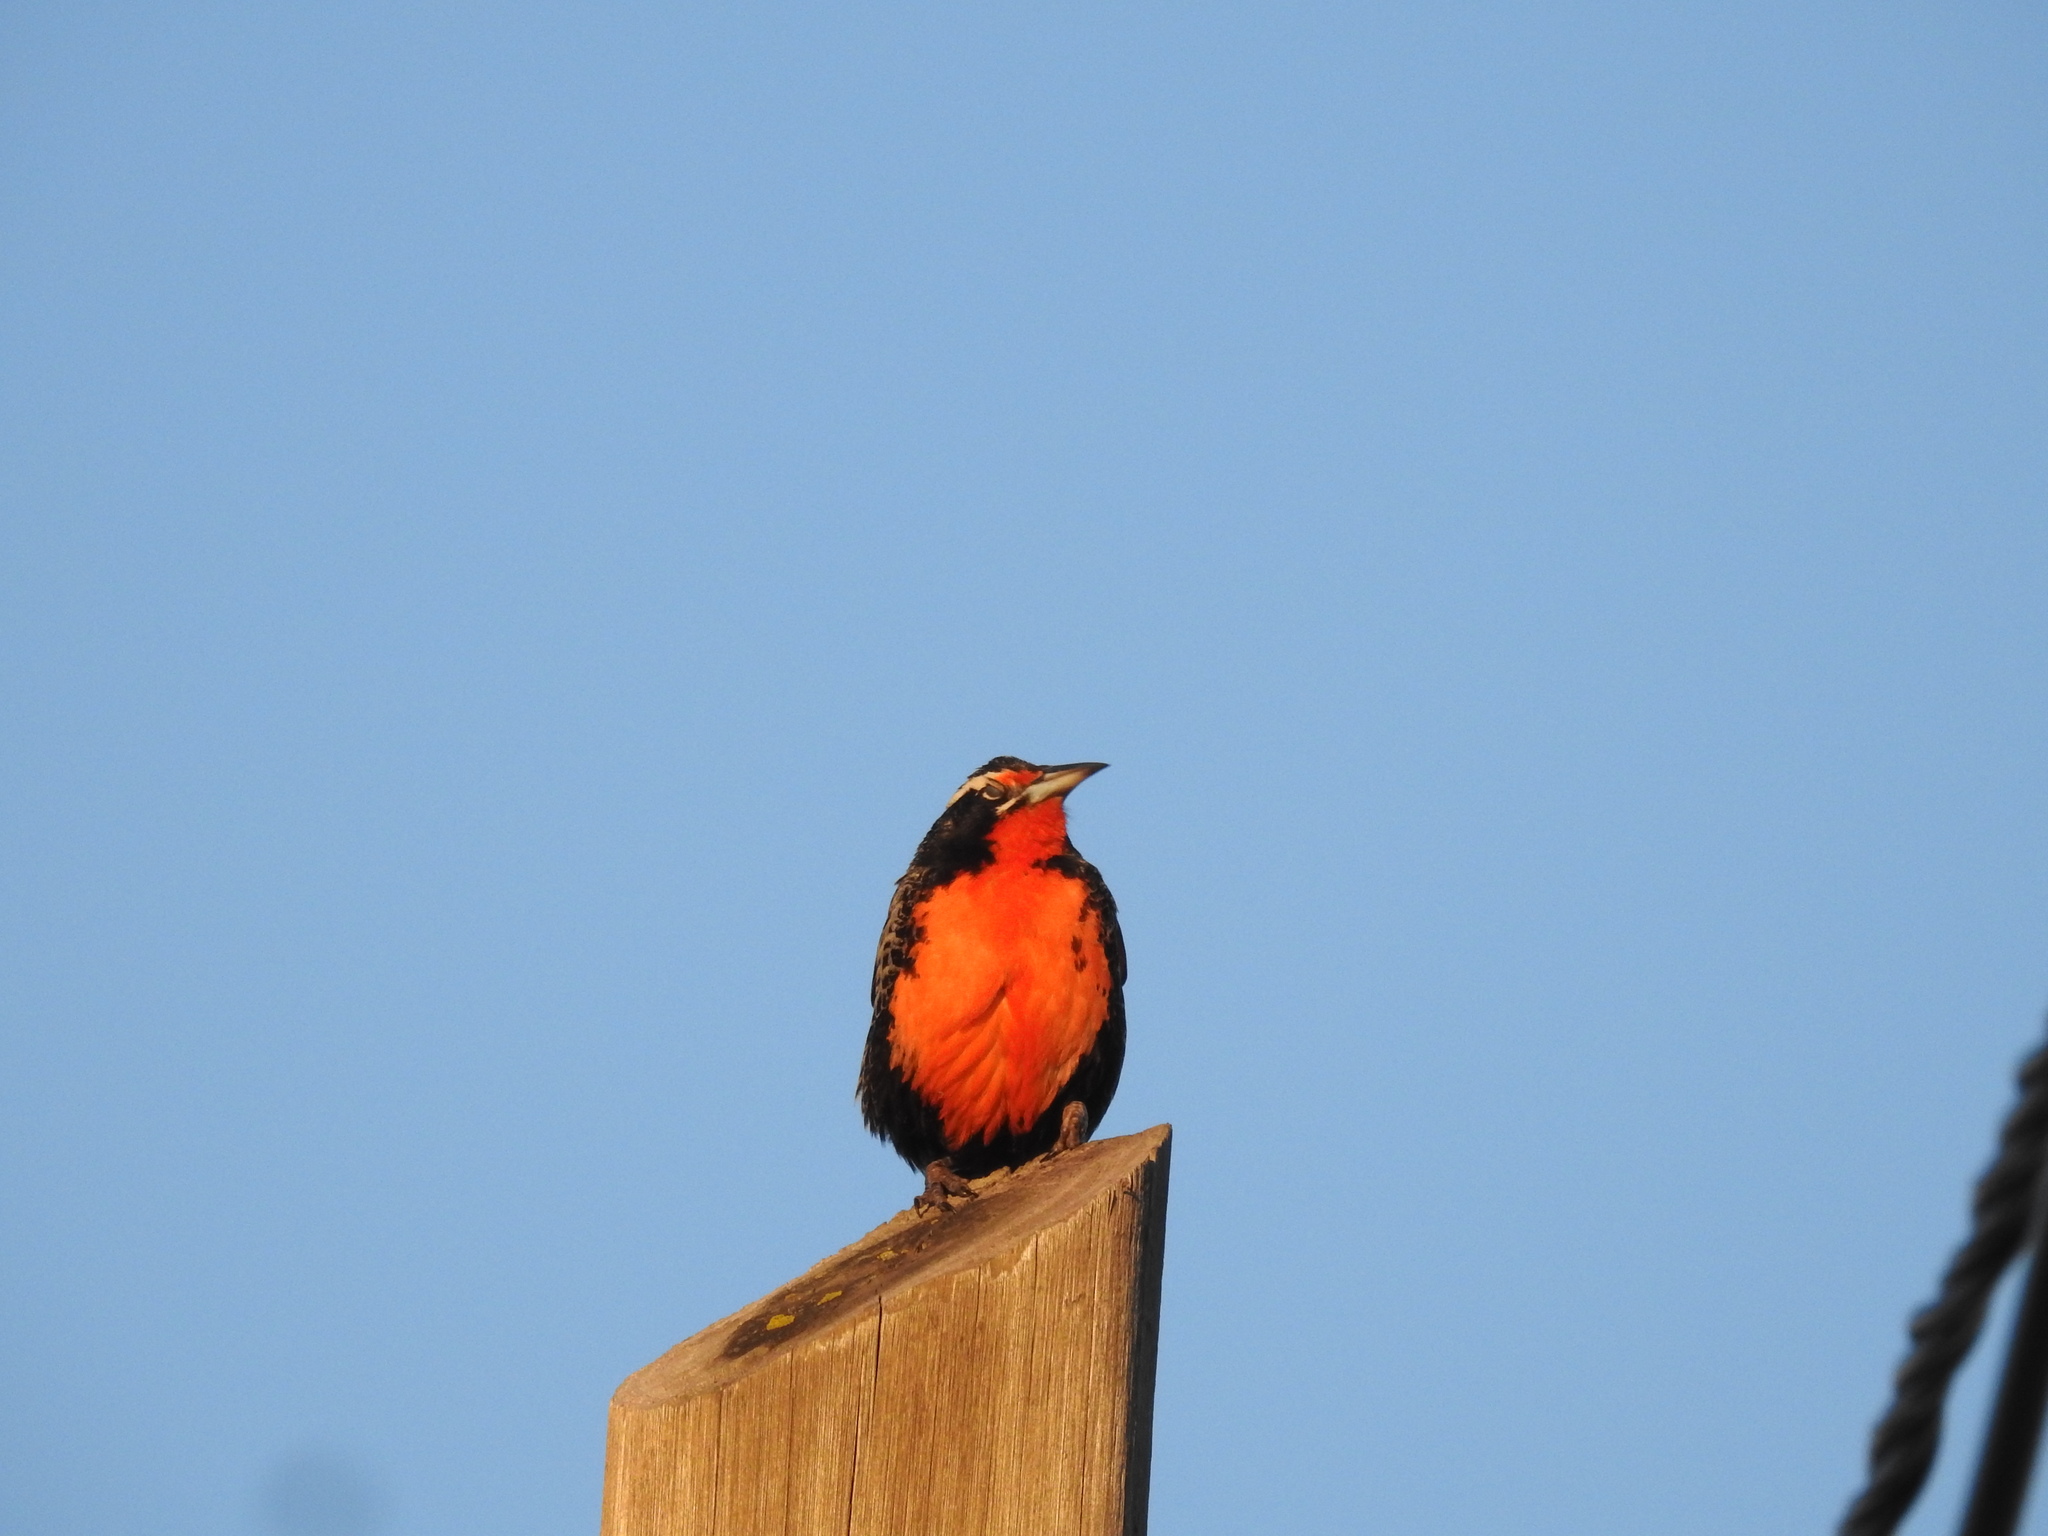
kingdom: Animalia
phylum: Chordata
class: Aves
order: Passeriformes
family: Icteridae
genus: Sturnella
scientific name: Sturnella loyca
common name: Long-tailed meadowlark
